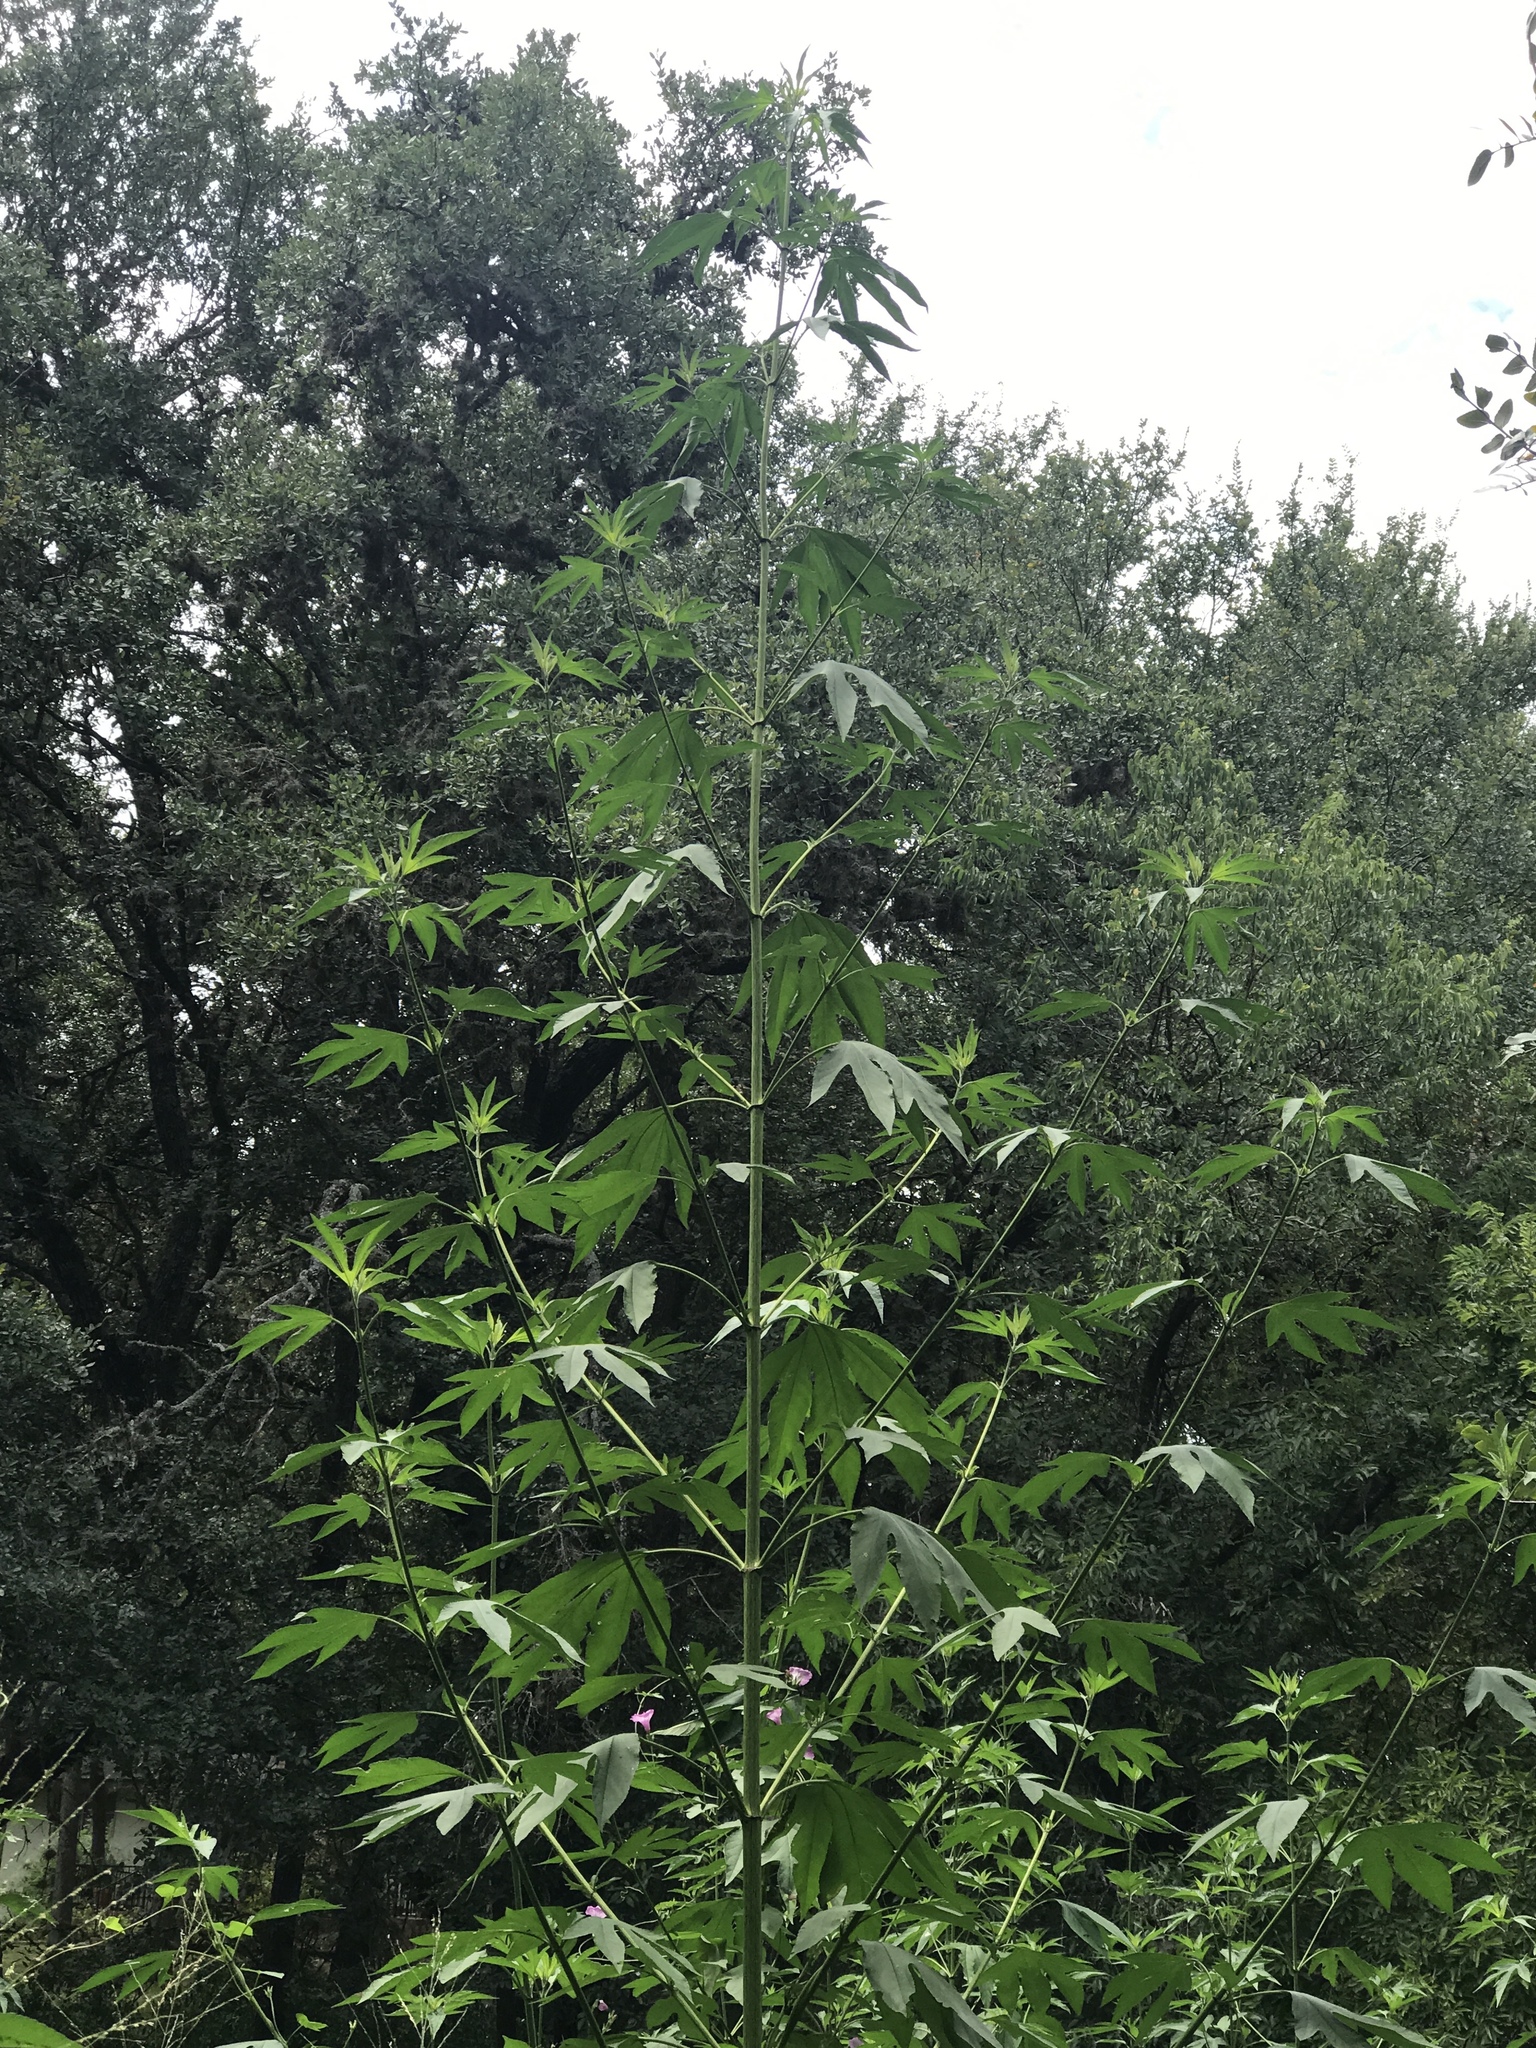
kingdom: Plantae
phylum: Tracheophyta
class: Magnoliopsida
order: Asterales
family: Asteraceae
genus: Ambrosia
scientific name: Ambrosia trifida
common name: Giant ragweed
